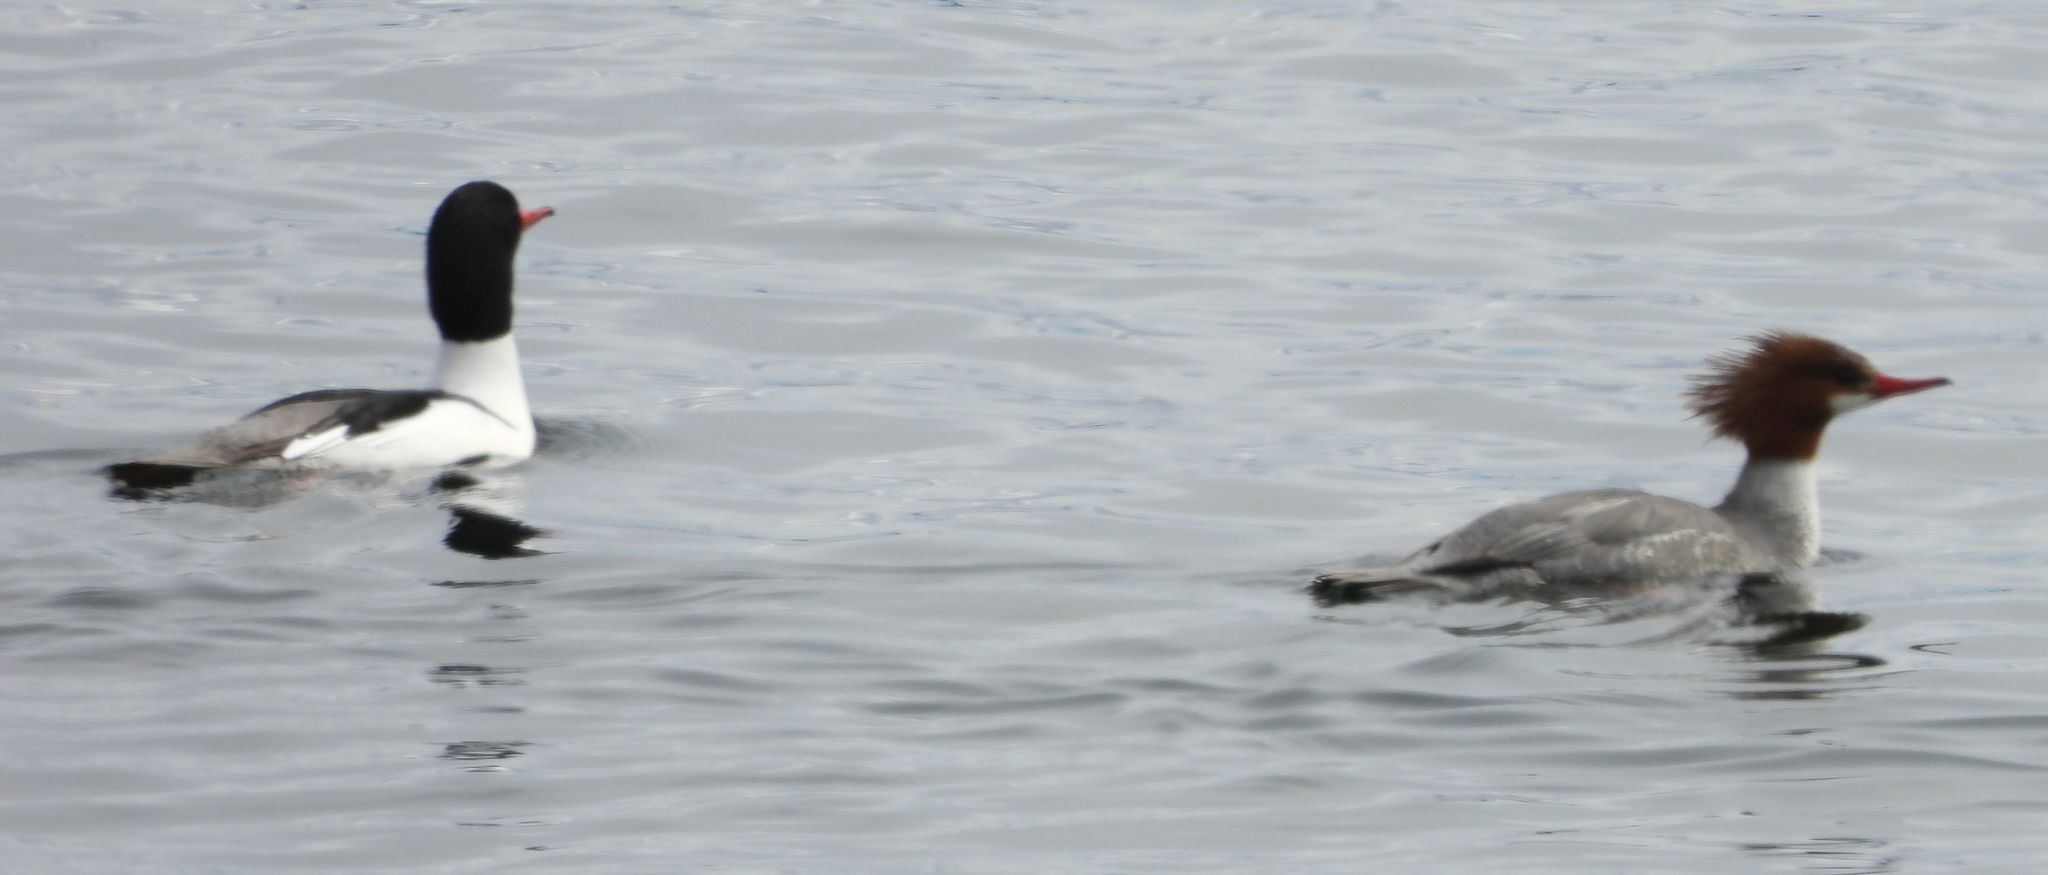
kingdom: Animalia
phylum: Chordata
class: Aves
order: Anseriformes
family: Anatidae
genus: Mergus
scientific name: Mergus merganser
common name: Common merganser
